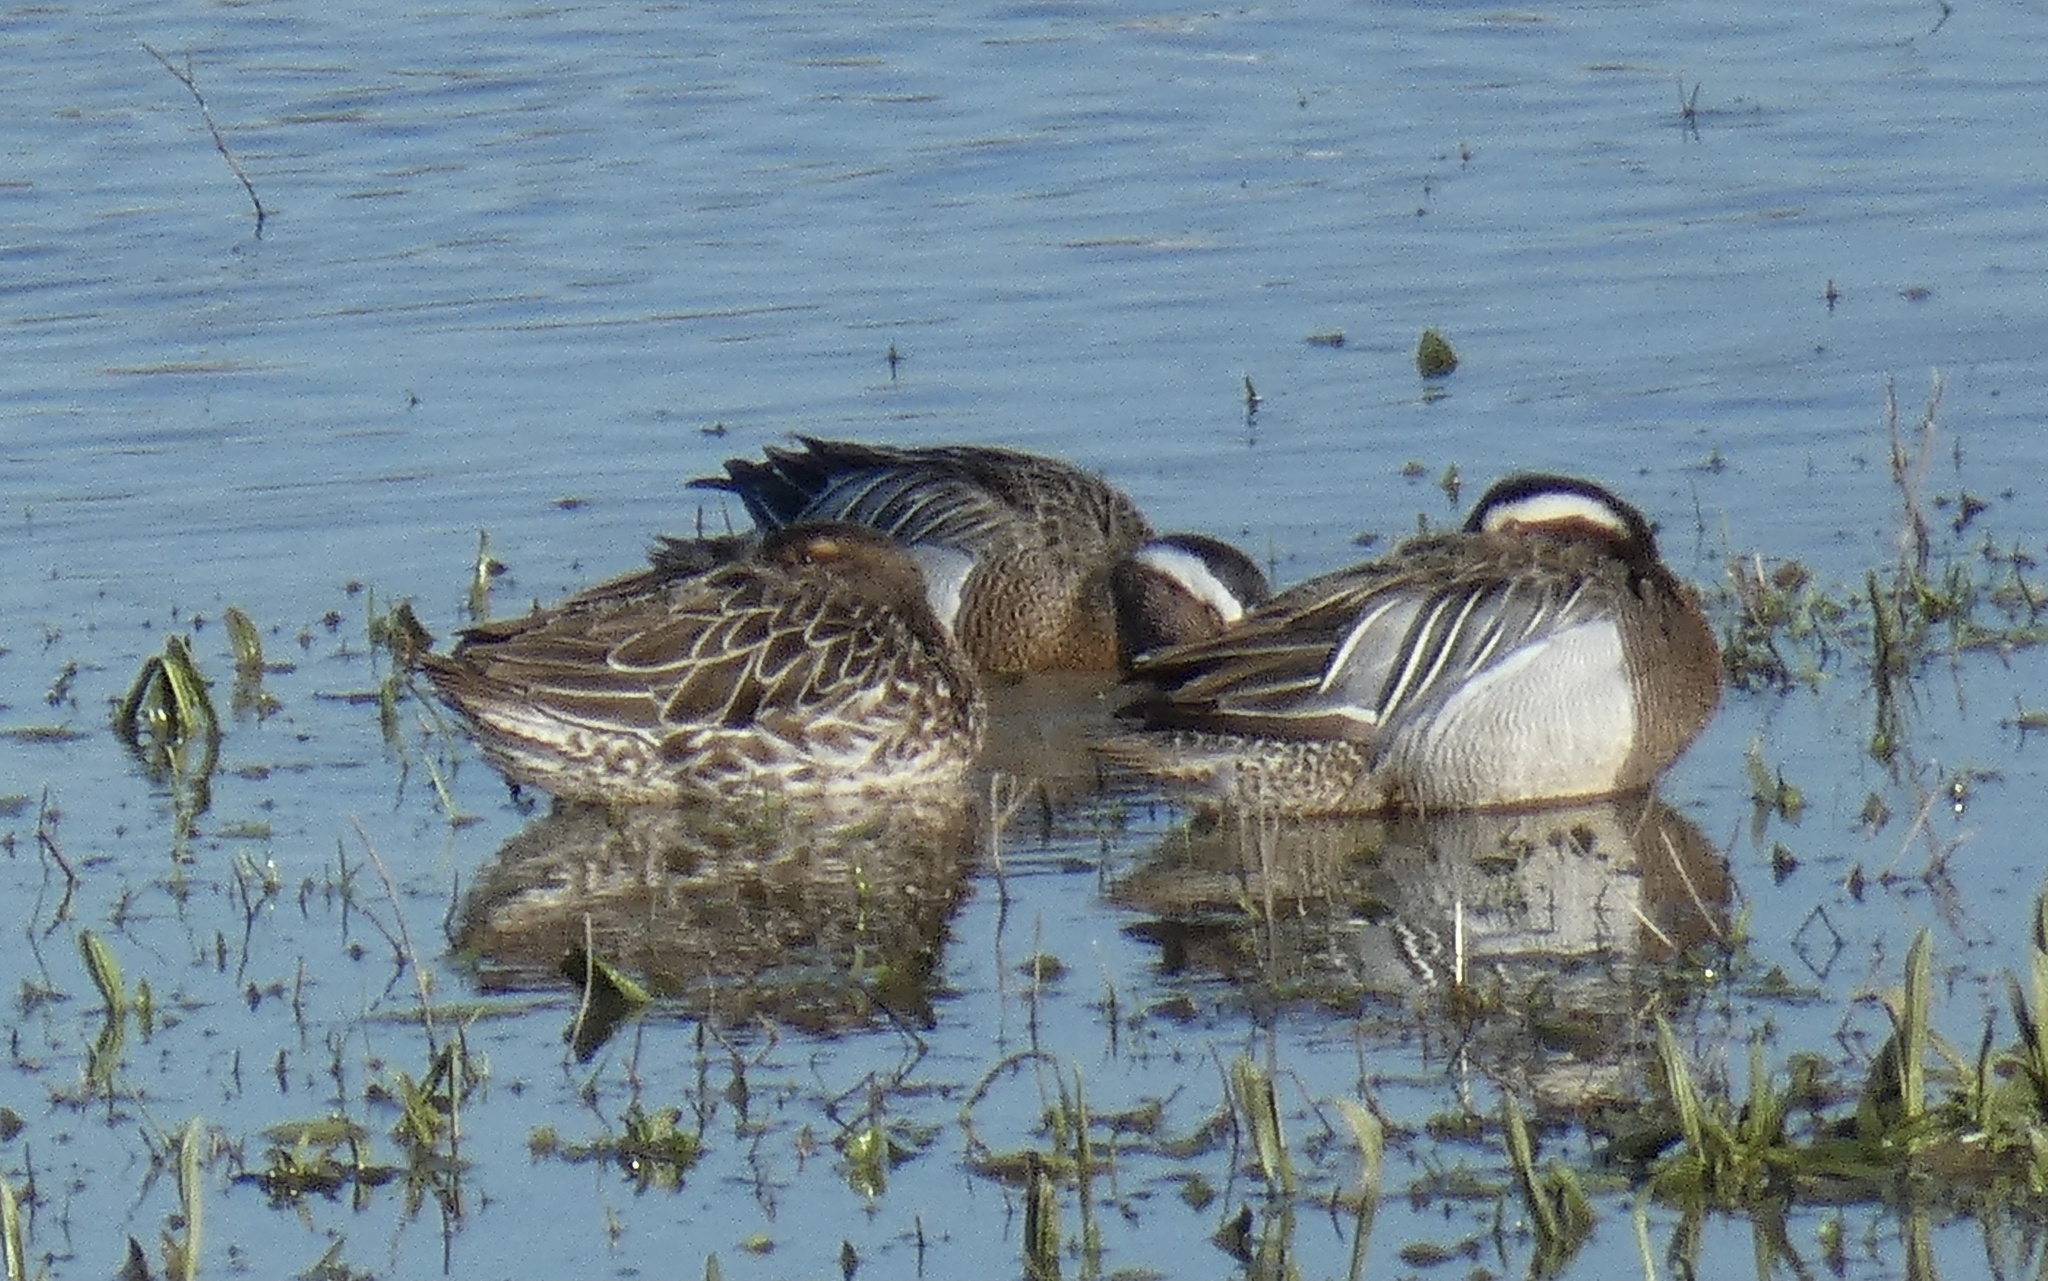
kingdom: Animalia
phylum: Chordata
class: Aves
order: Anseriformes
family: Anatidae
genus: Spatula
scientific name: Spatula querquedula
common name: Garganey
